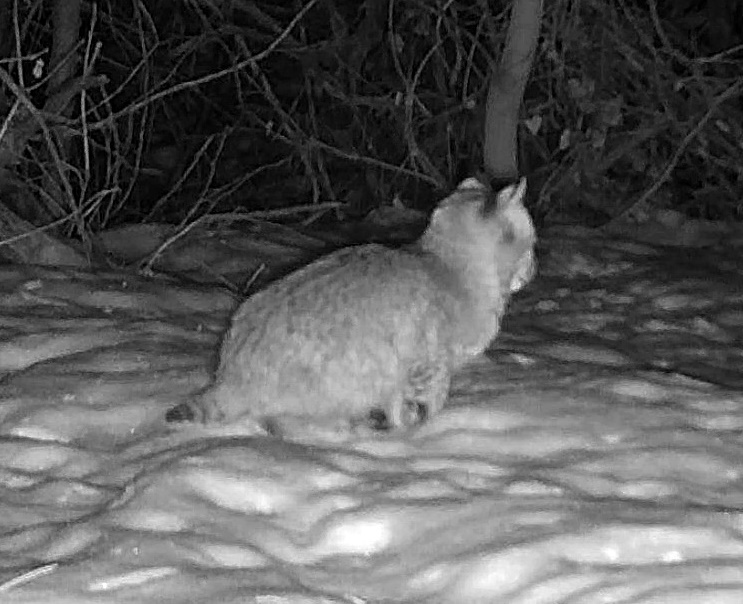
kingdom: Animalia
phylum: Chordata
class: Mammalia
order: Carnivora
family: Felidae
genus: Lynx
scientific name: Lynx rufus
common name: Bobcat
